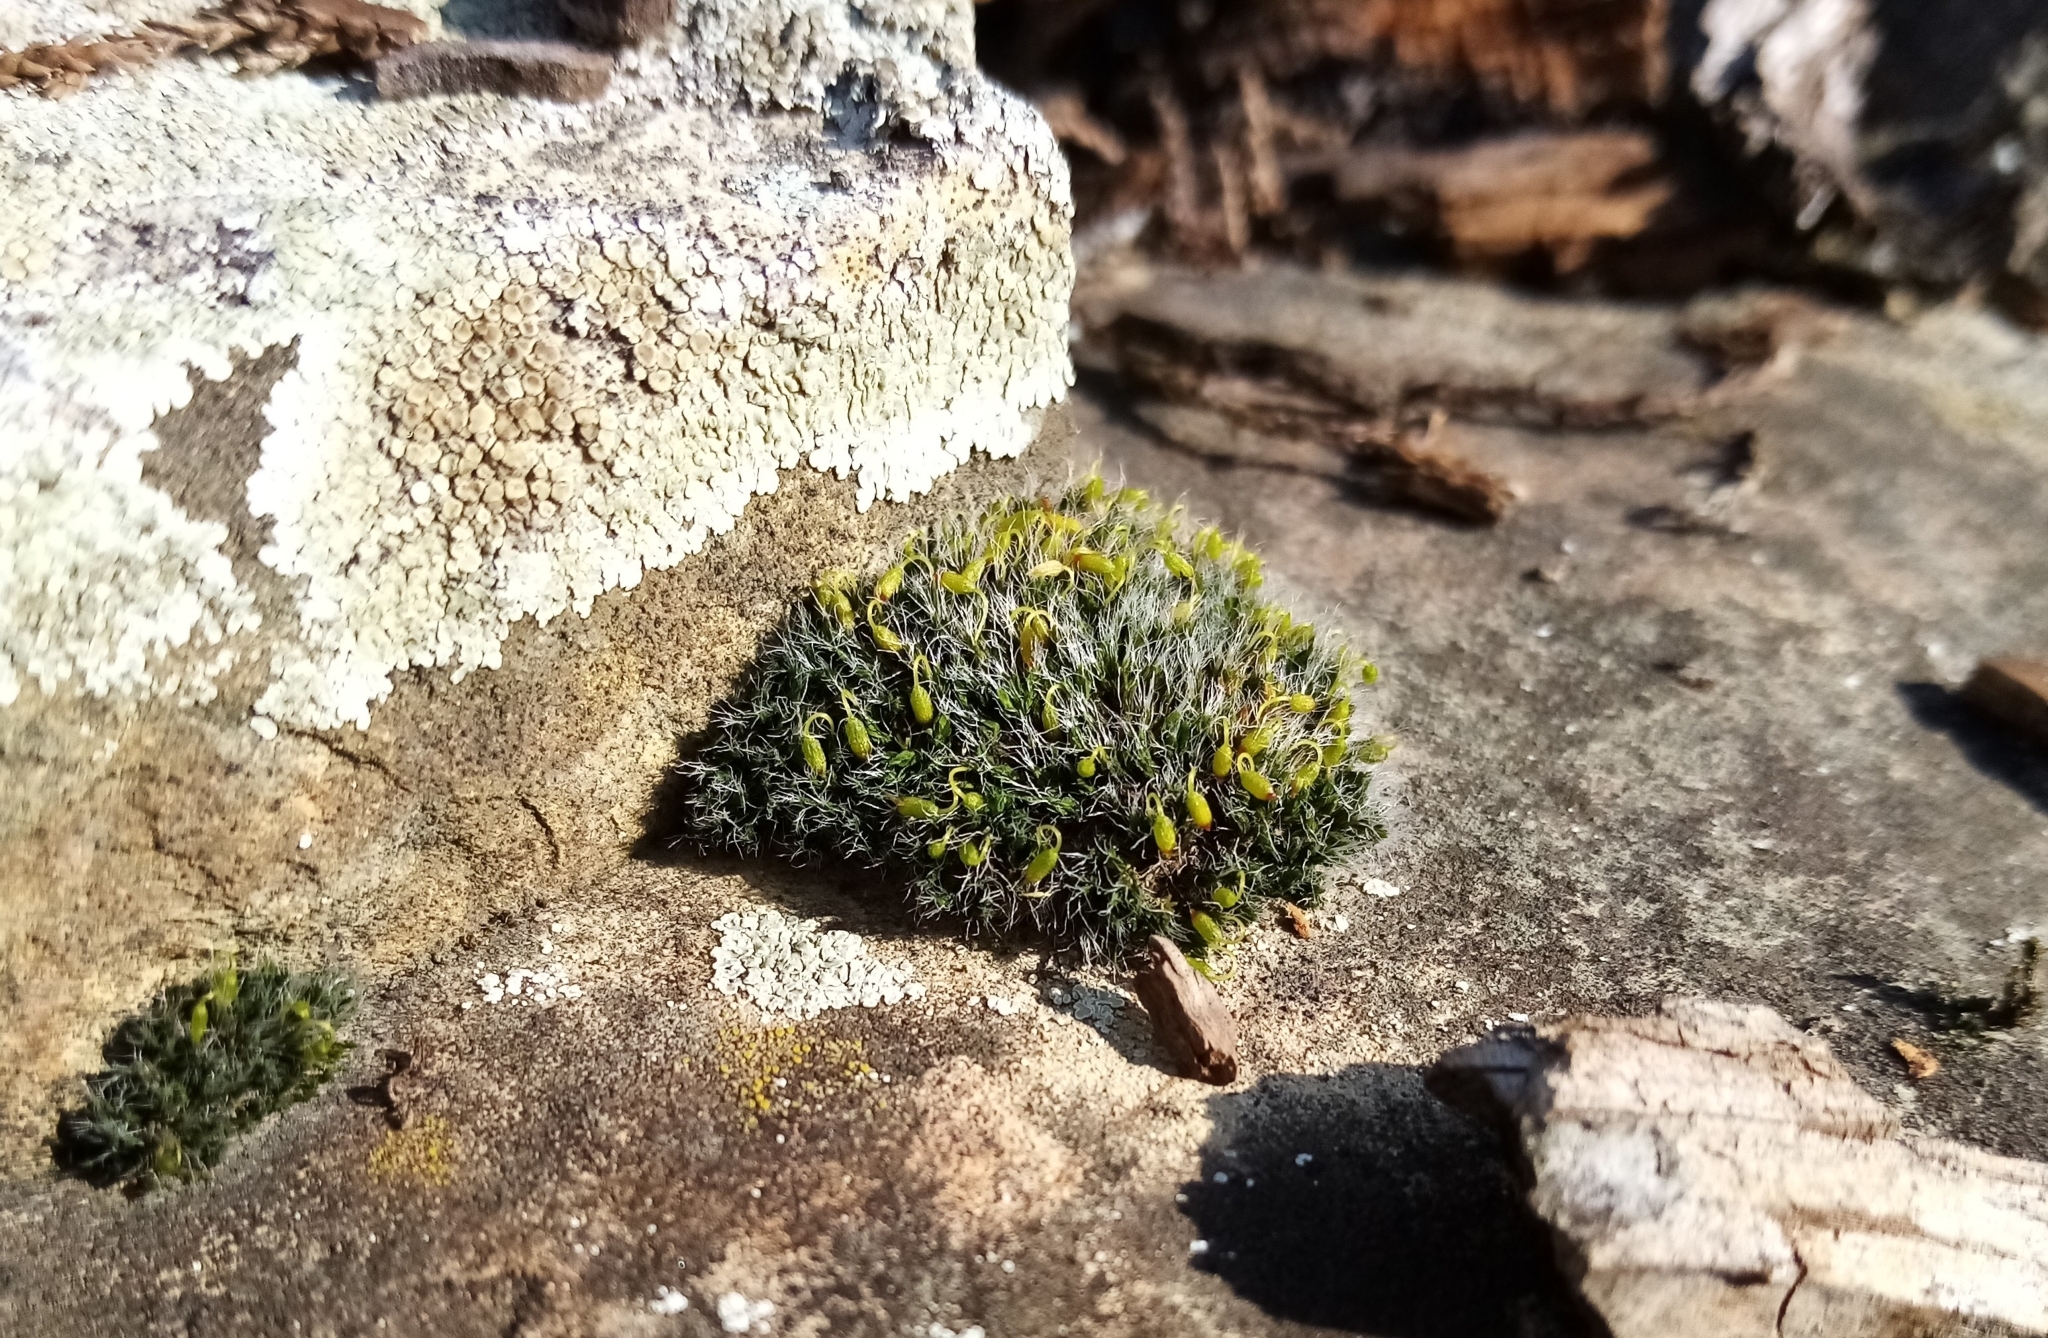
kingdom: Plantae
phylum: Bryophyta
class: Bryopsida
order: Grimmiales
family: Grimmiaceae
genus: Grimmia
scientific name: Grimmia pulvinata
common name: Grey-cushioned grimmia
